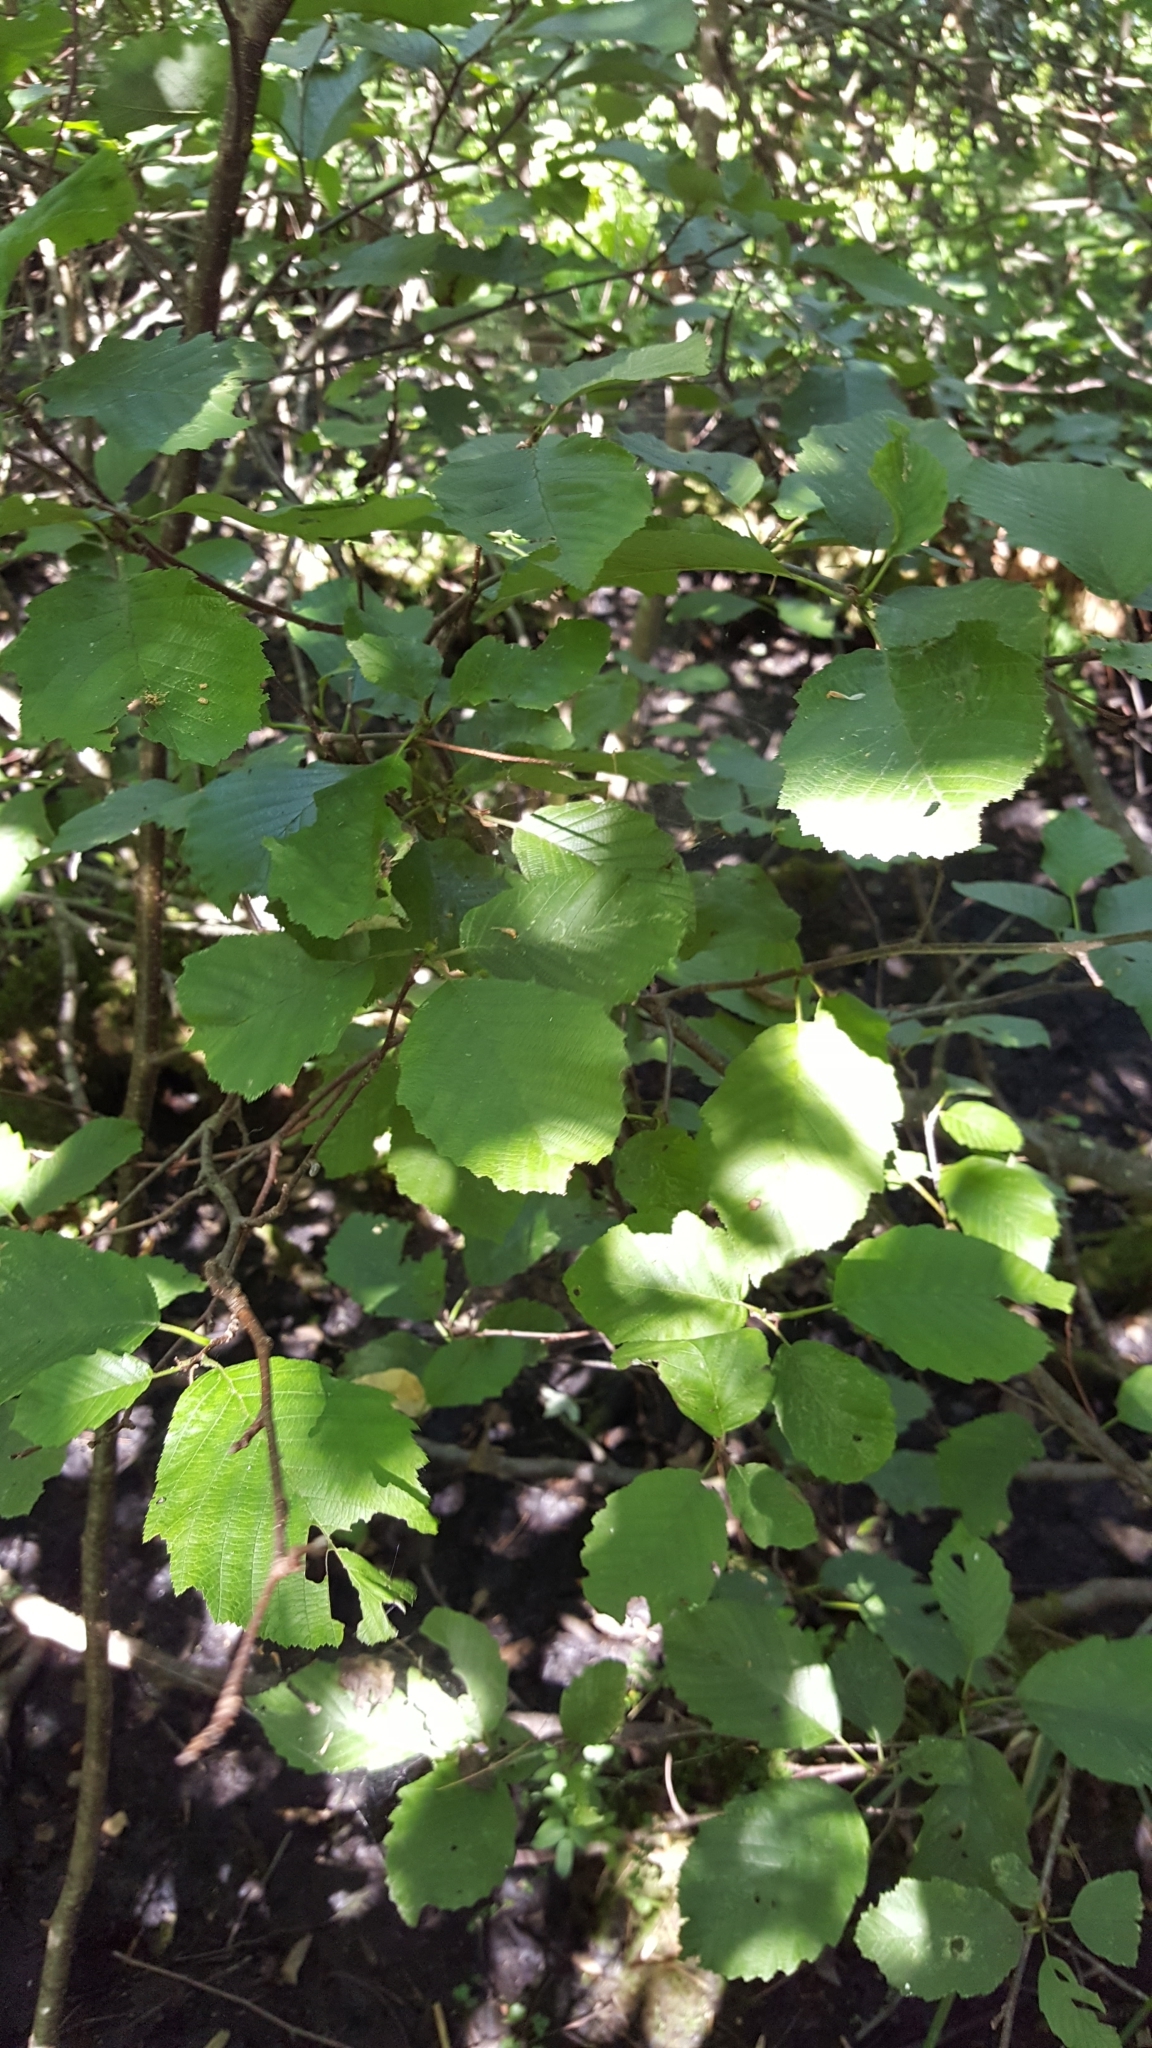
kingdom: Plantae
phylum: Tracheophyta
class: Magnoliopsida
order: Fagales
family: Betulaceae
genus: Alnus
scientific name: Alnus incana
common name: Grey alder
